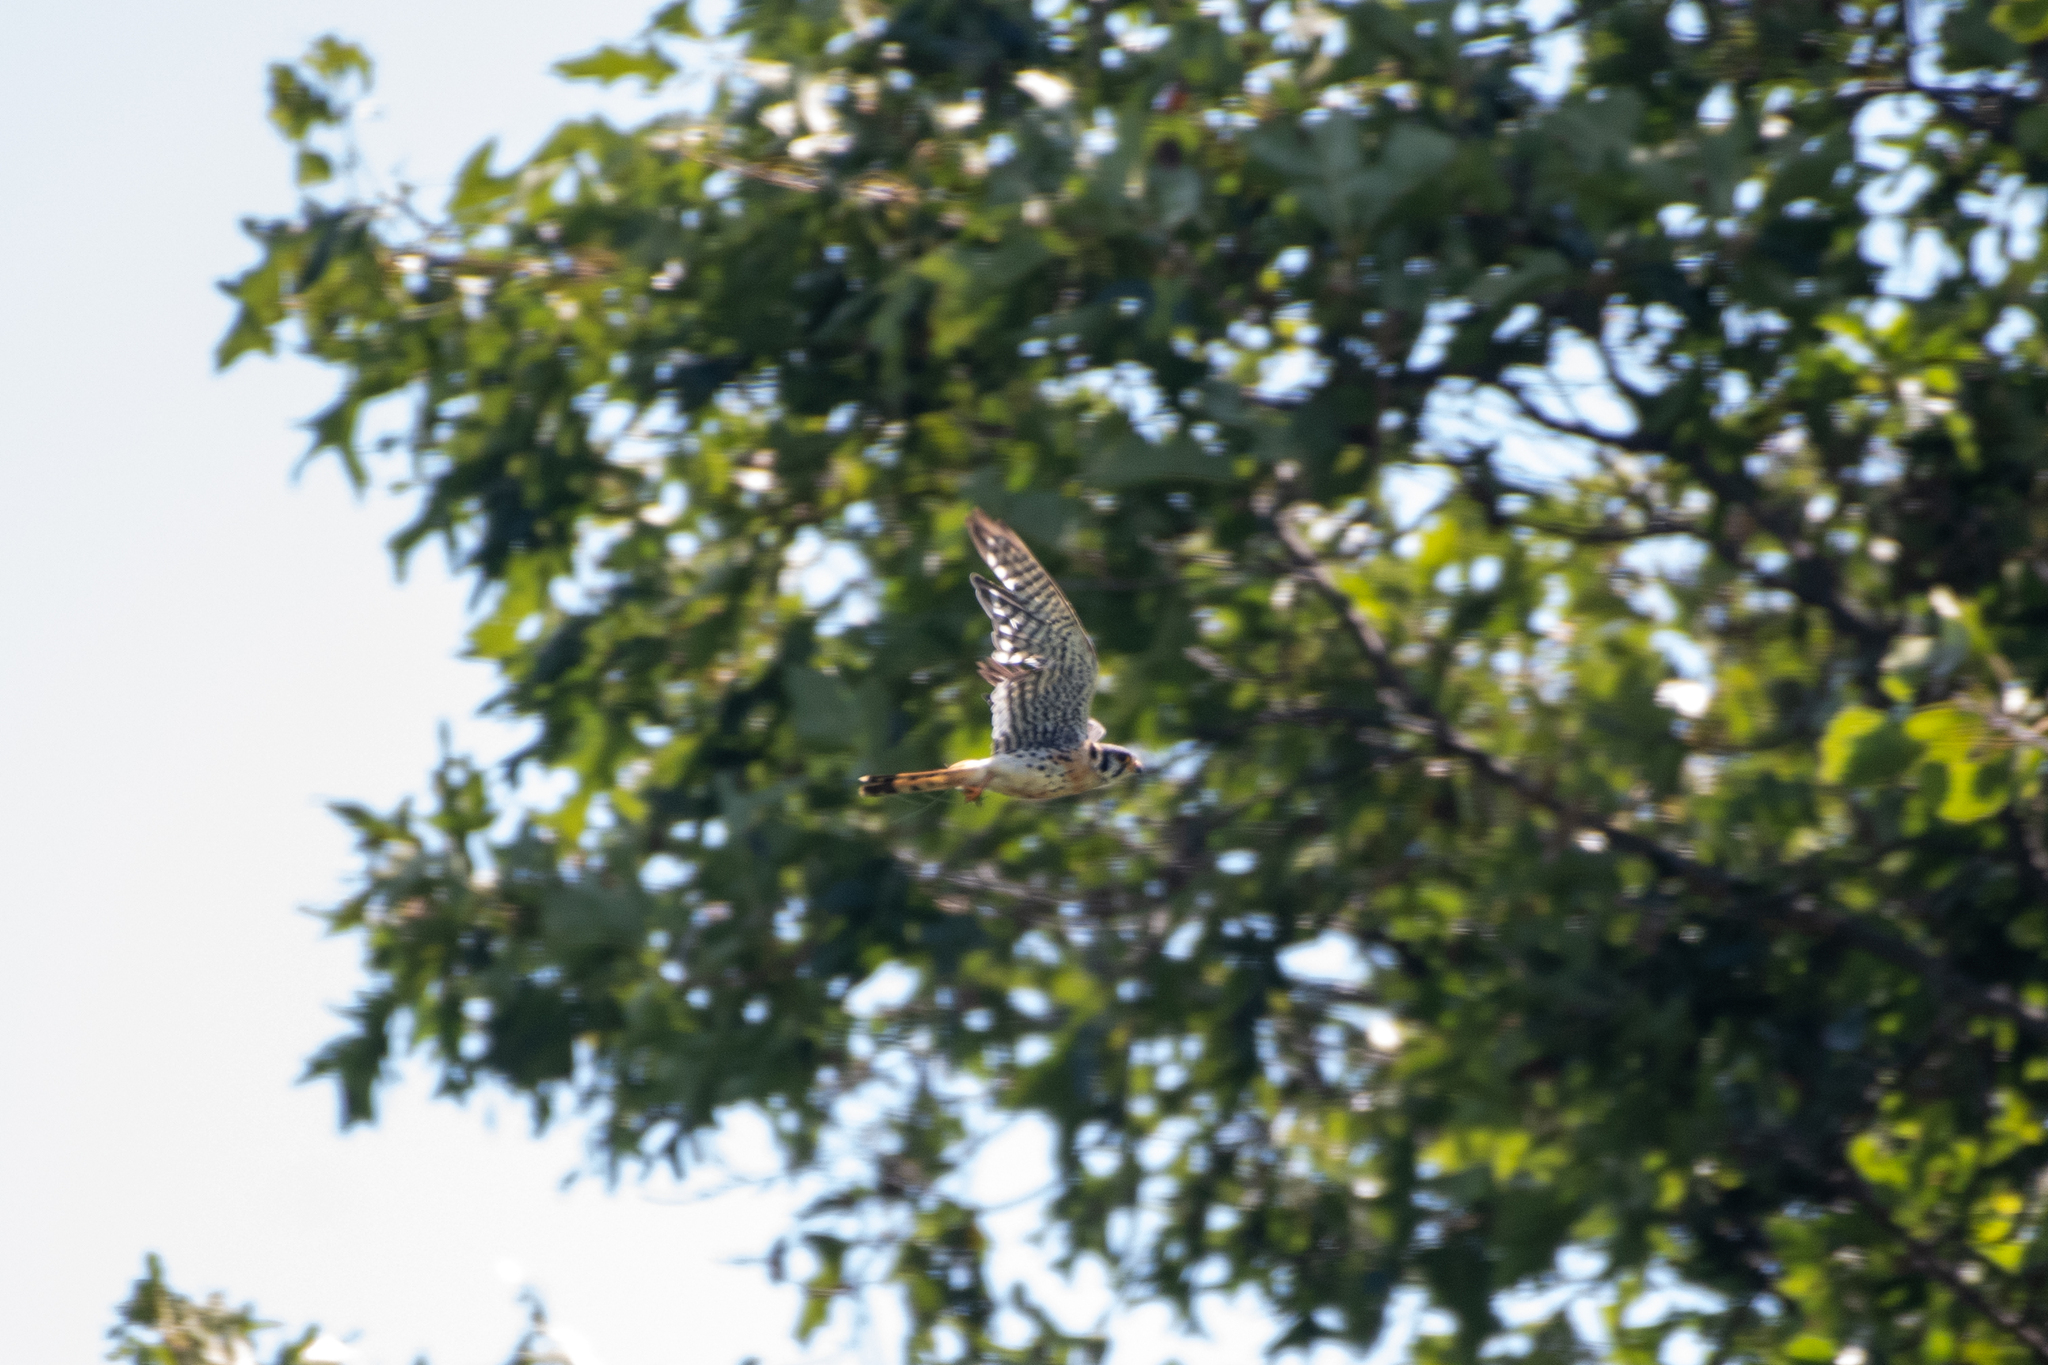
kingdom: Animalia
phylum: Chordata
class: Aves
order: Falconiformes
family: Falconidae
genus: Falco
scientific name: Falco sparverius
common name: American kestrel
